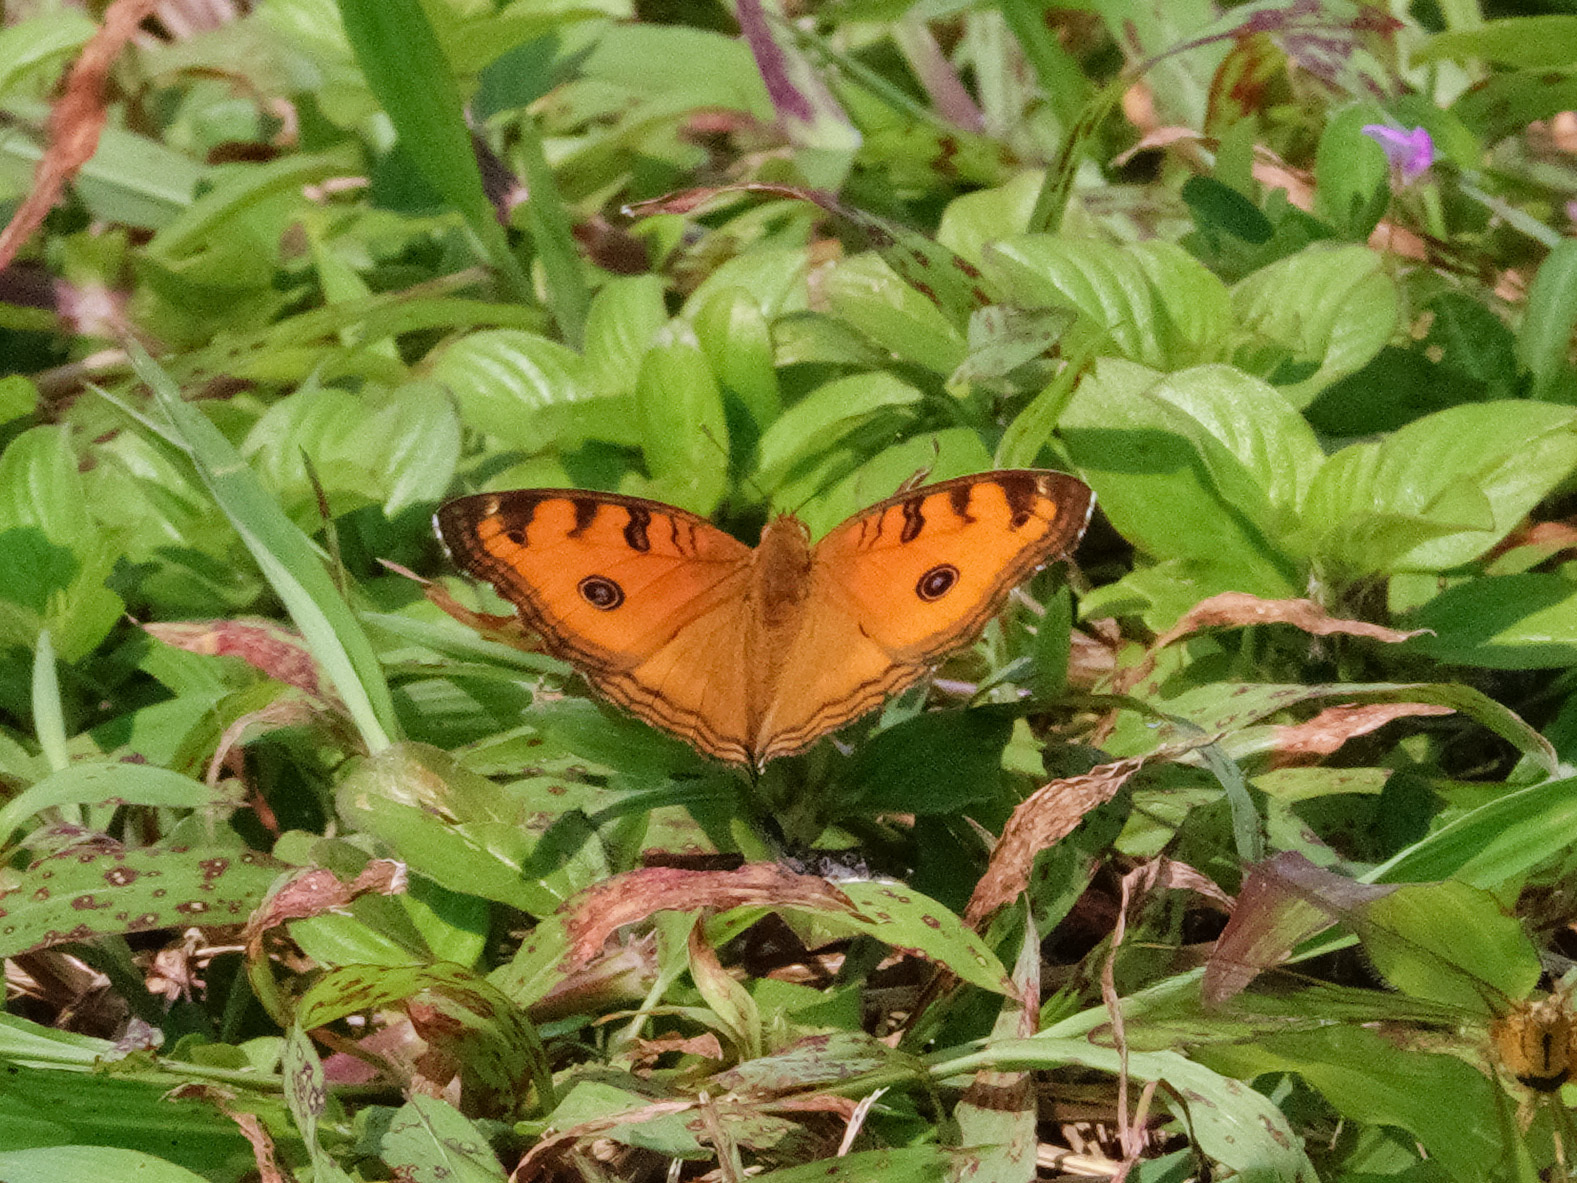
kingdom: Animalia
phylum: Arthropoda
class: Insecta
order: Lepidoptera
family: Nymphalidae
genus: Junonia
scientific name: Junonia almana
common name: Peacock pansy
